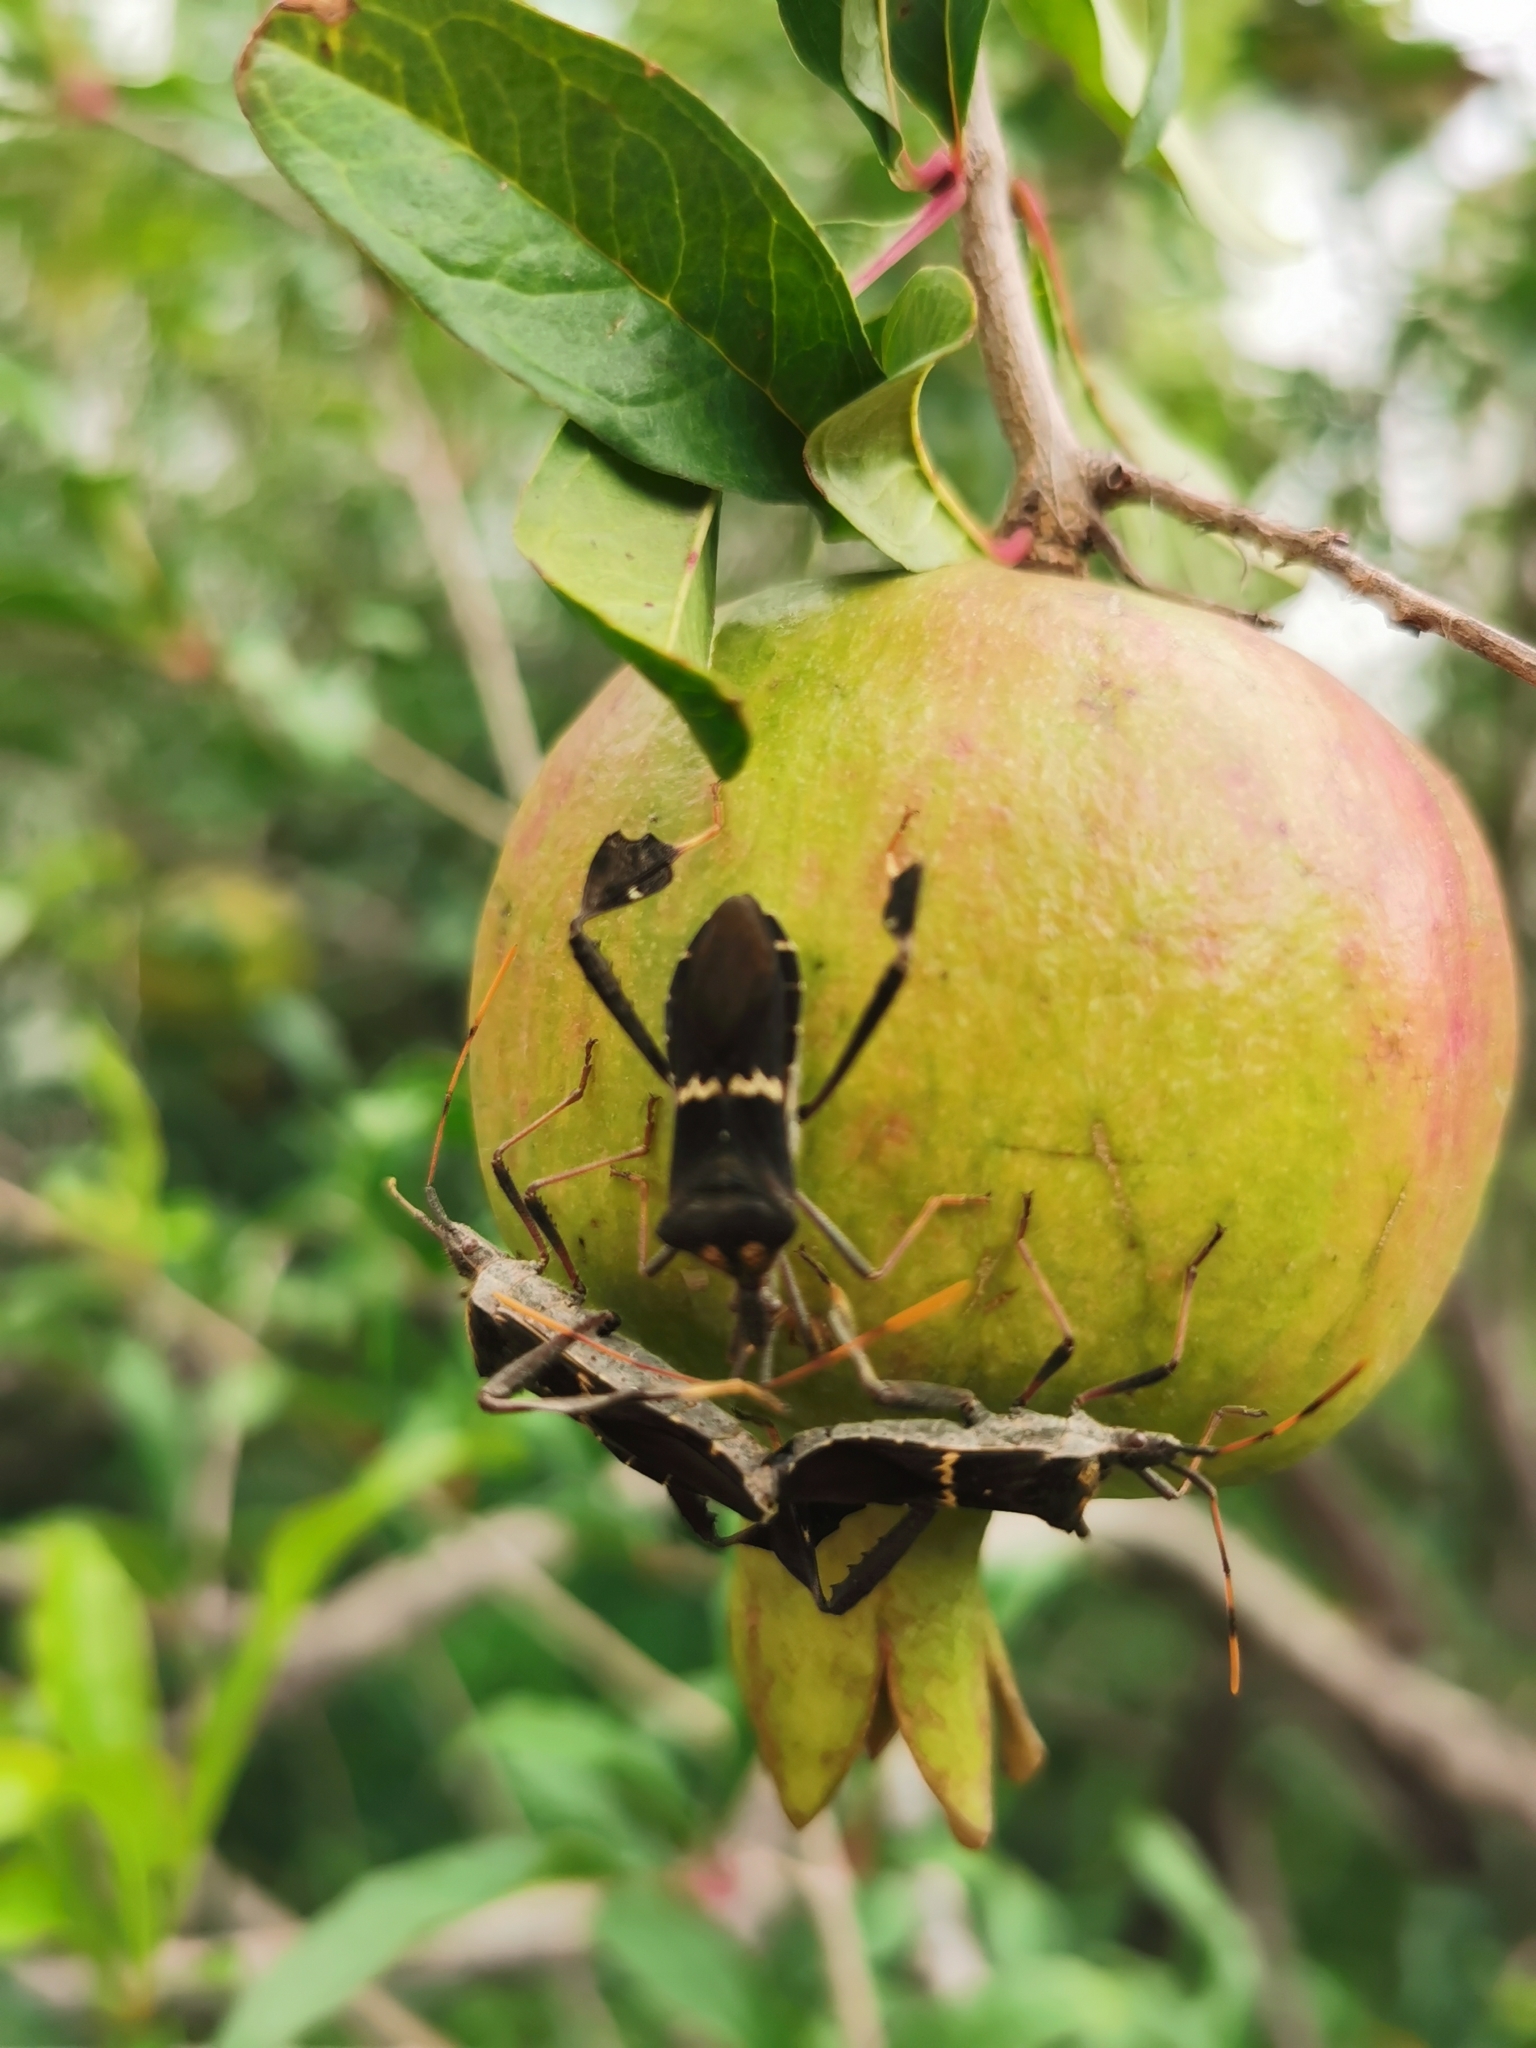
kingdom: Animalia
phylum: Arthropoda
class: Insecta
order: Hemiptera
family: Coreidae
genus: Leptoglossus
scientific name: Leptoglossus zonatus
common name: Large-legged bug
